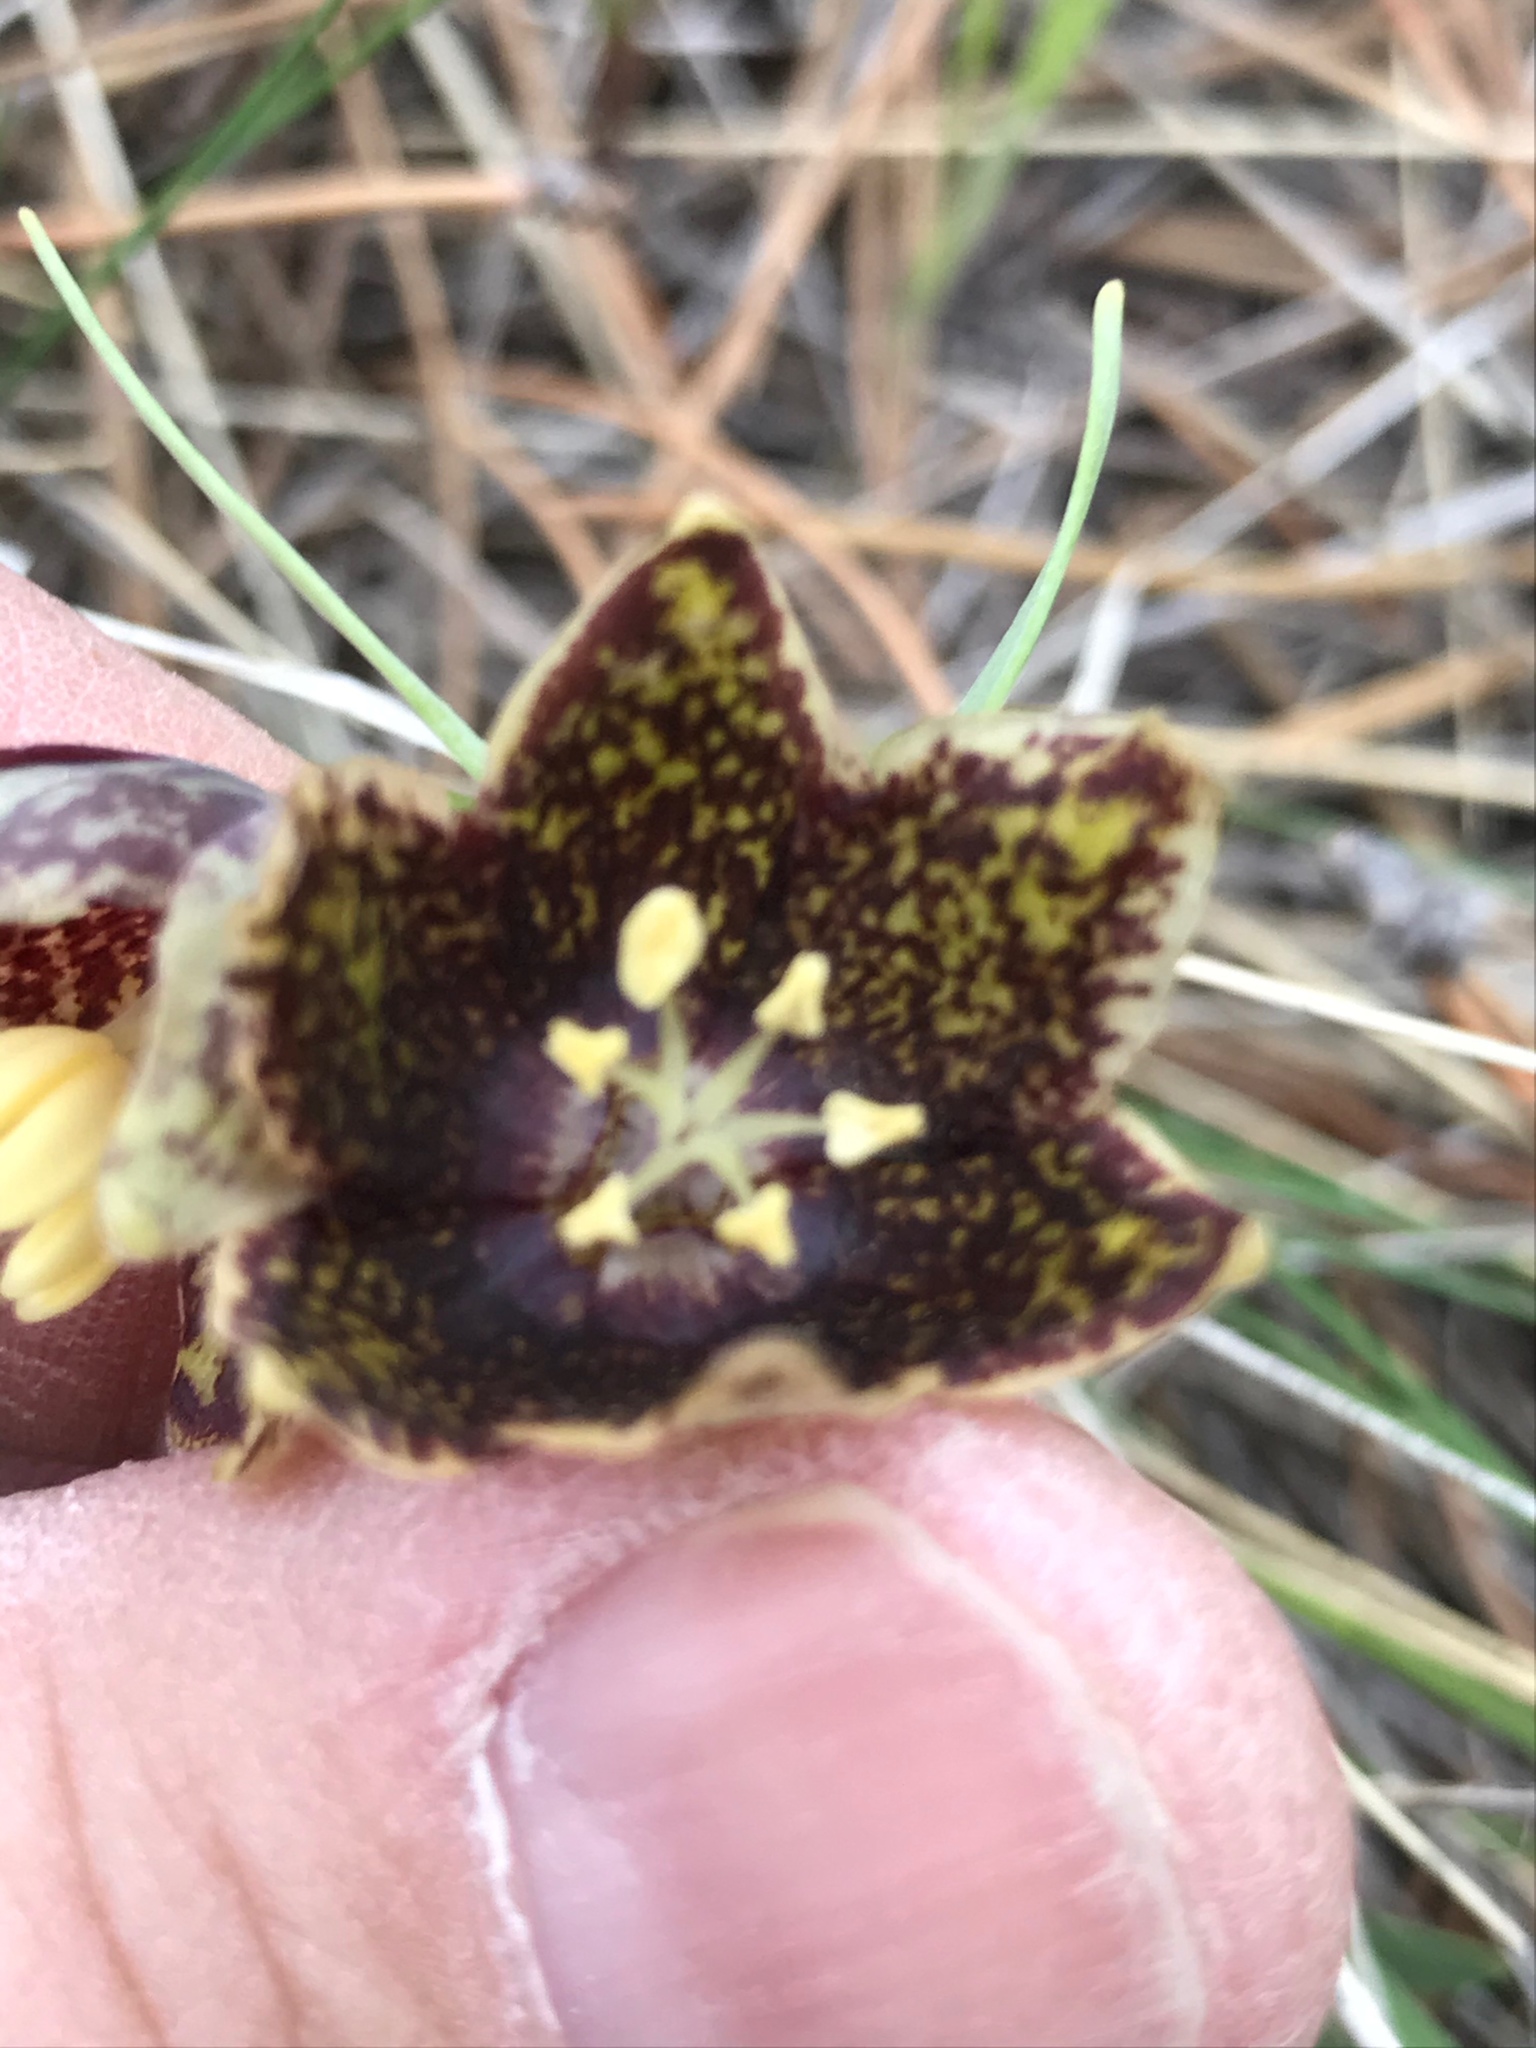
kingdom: Plantae
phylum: Tracheophyta
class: Liliopsida
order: Liliales
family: Liliaceae
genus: Fritillaria
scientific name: Fritillaria atropurpurea
